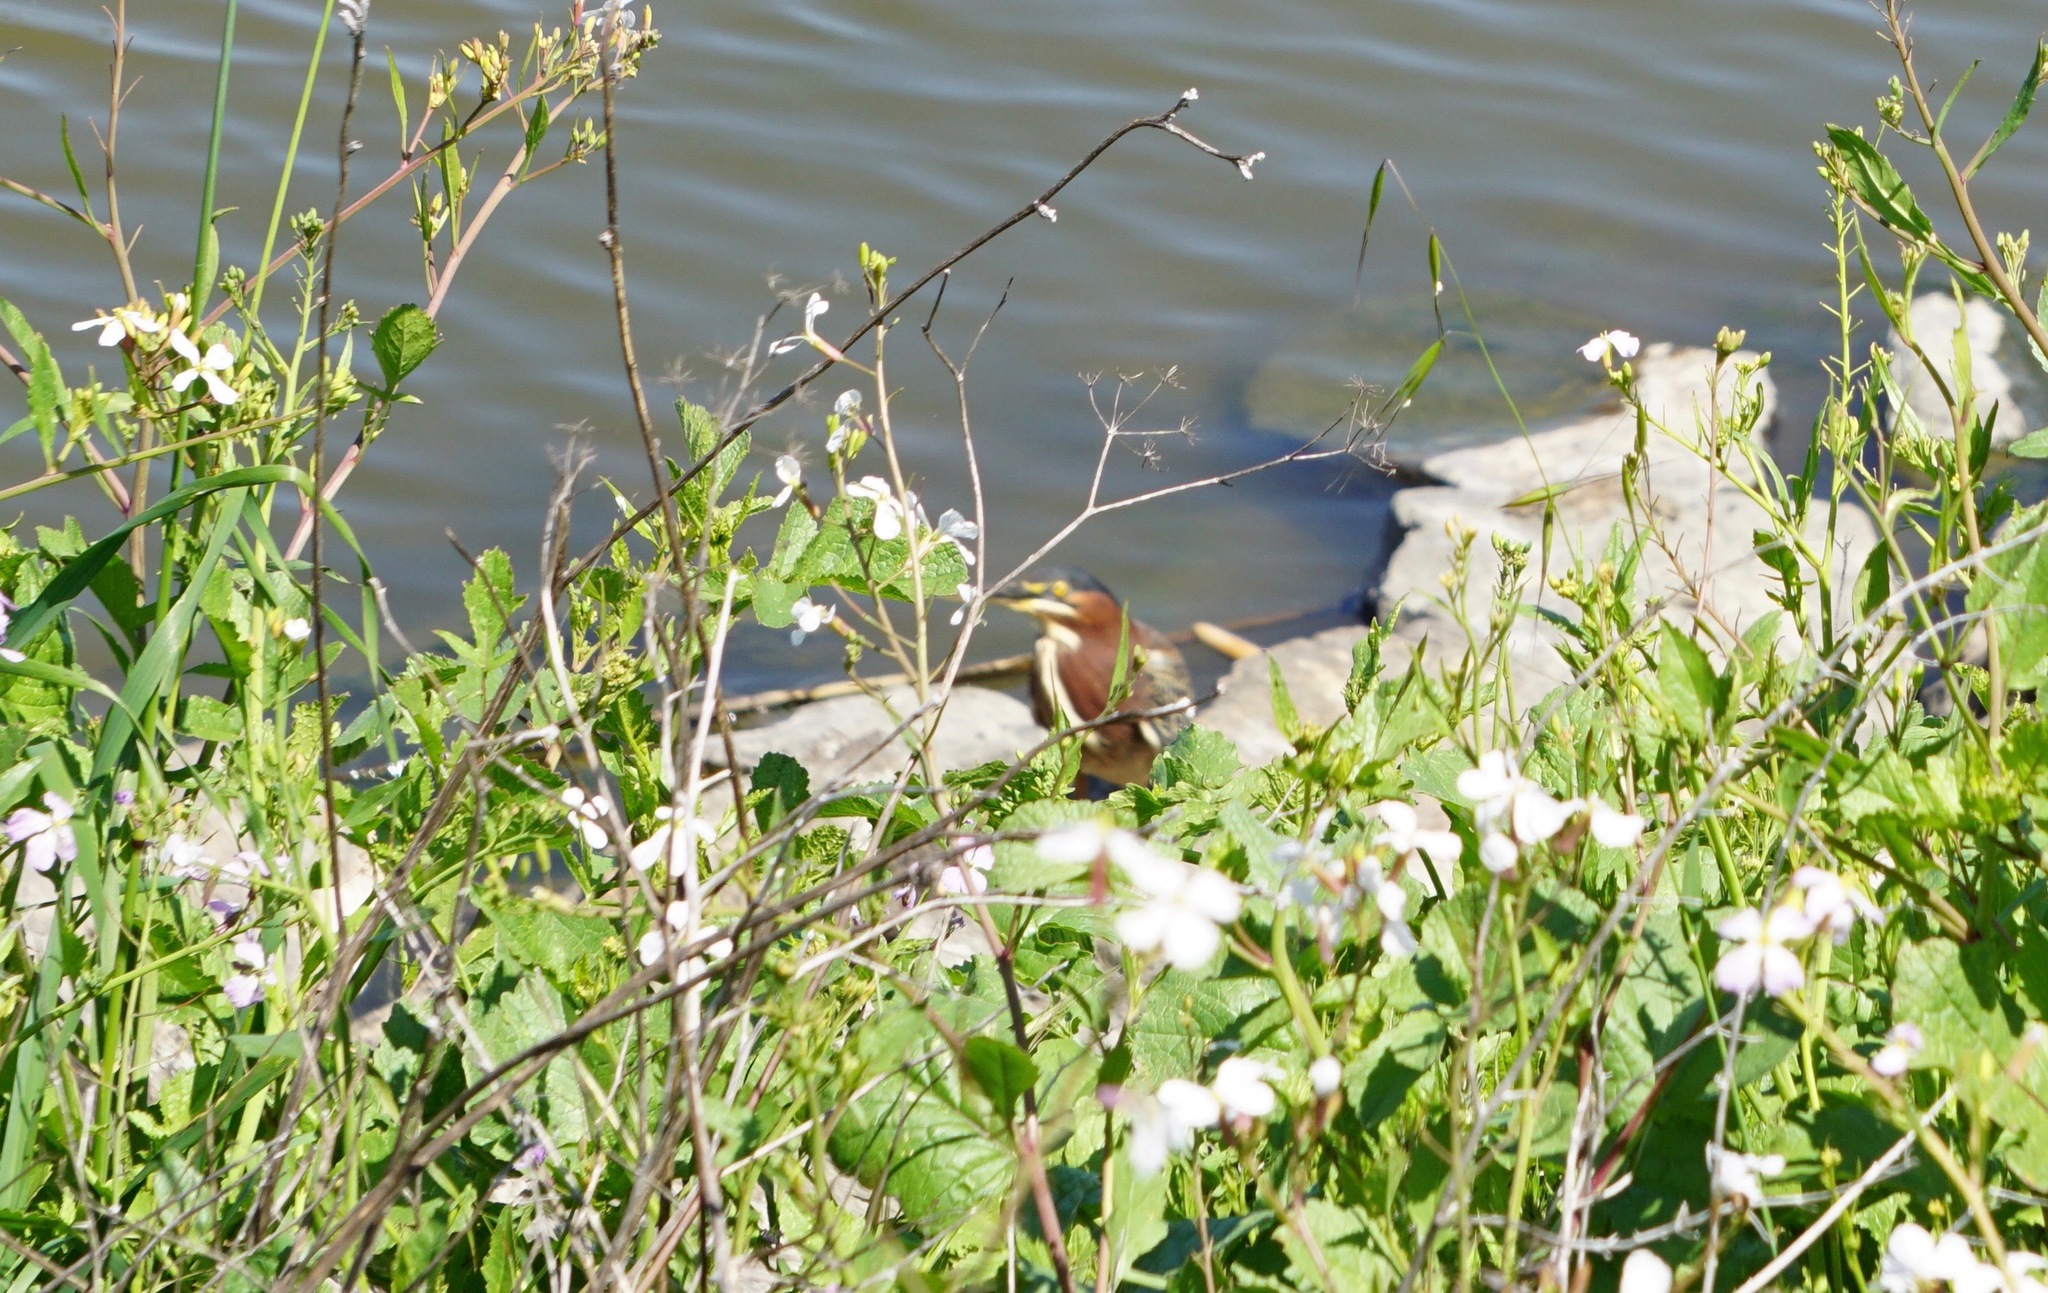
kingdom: Animalia
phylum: Chordata
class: Aves
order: Pelecaniformes
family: Ardeidae
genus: Butorides
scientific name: Butorides virescens
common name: Green heron
